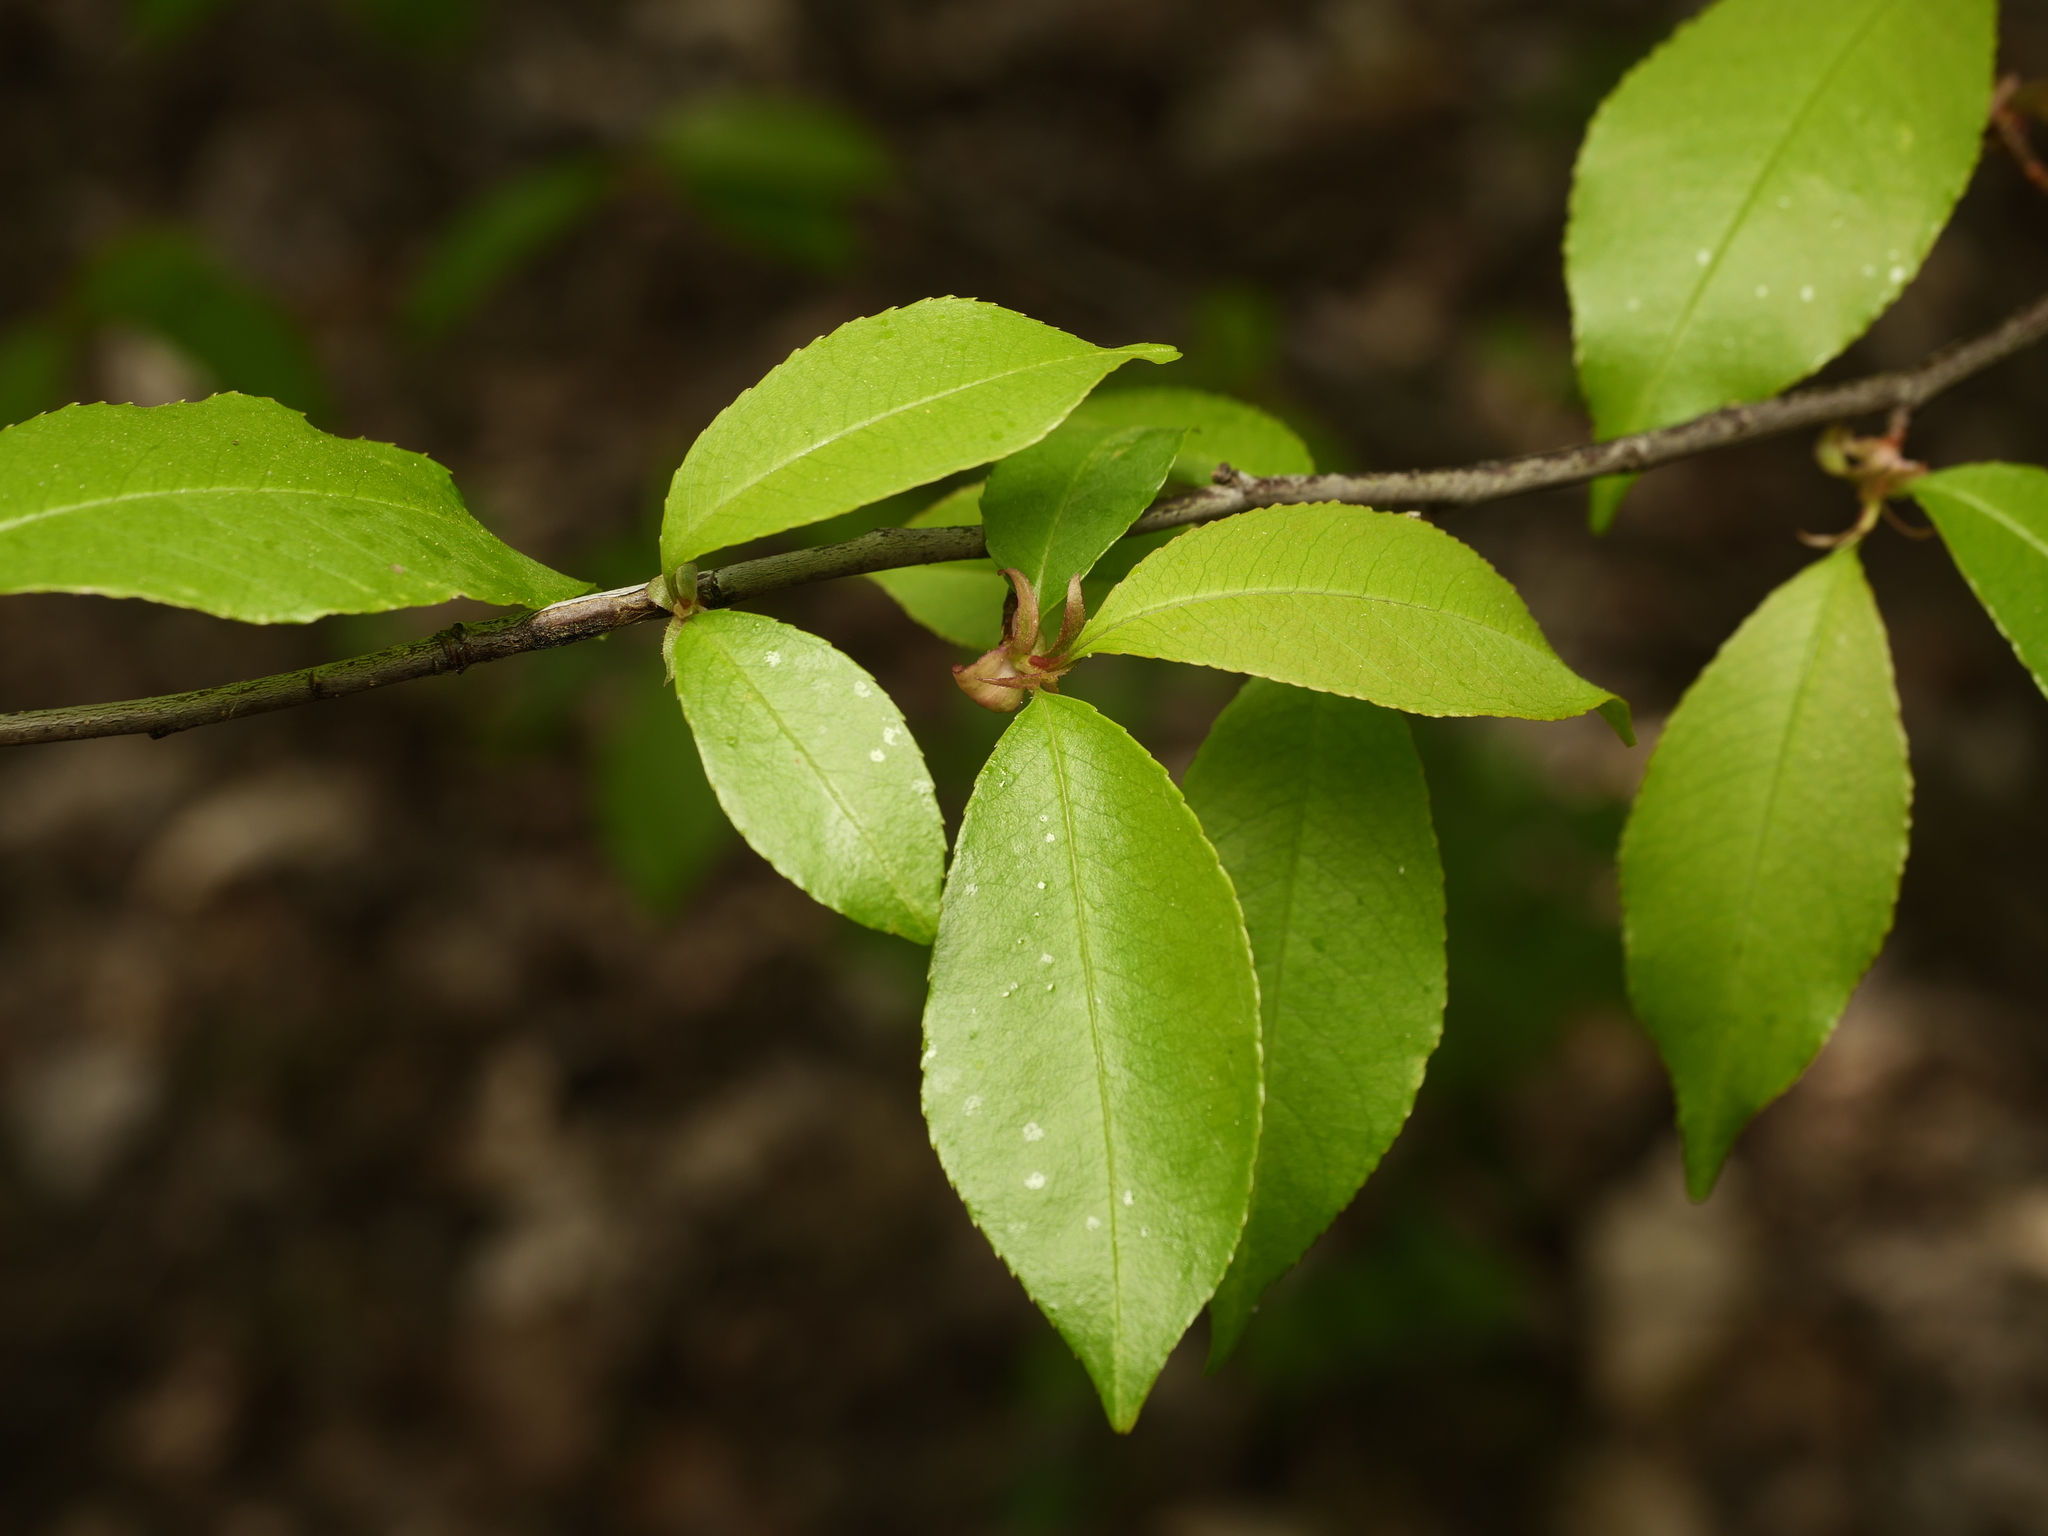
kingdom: Plantae
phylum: Tracheophyta
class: Magnoliopsida
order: Rosales
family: Rosaceae
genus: Prunus
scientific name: Prunus serotina
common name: Black cherry
